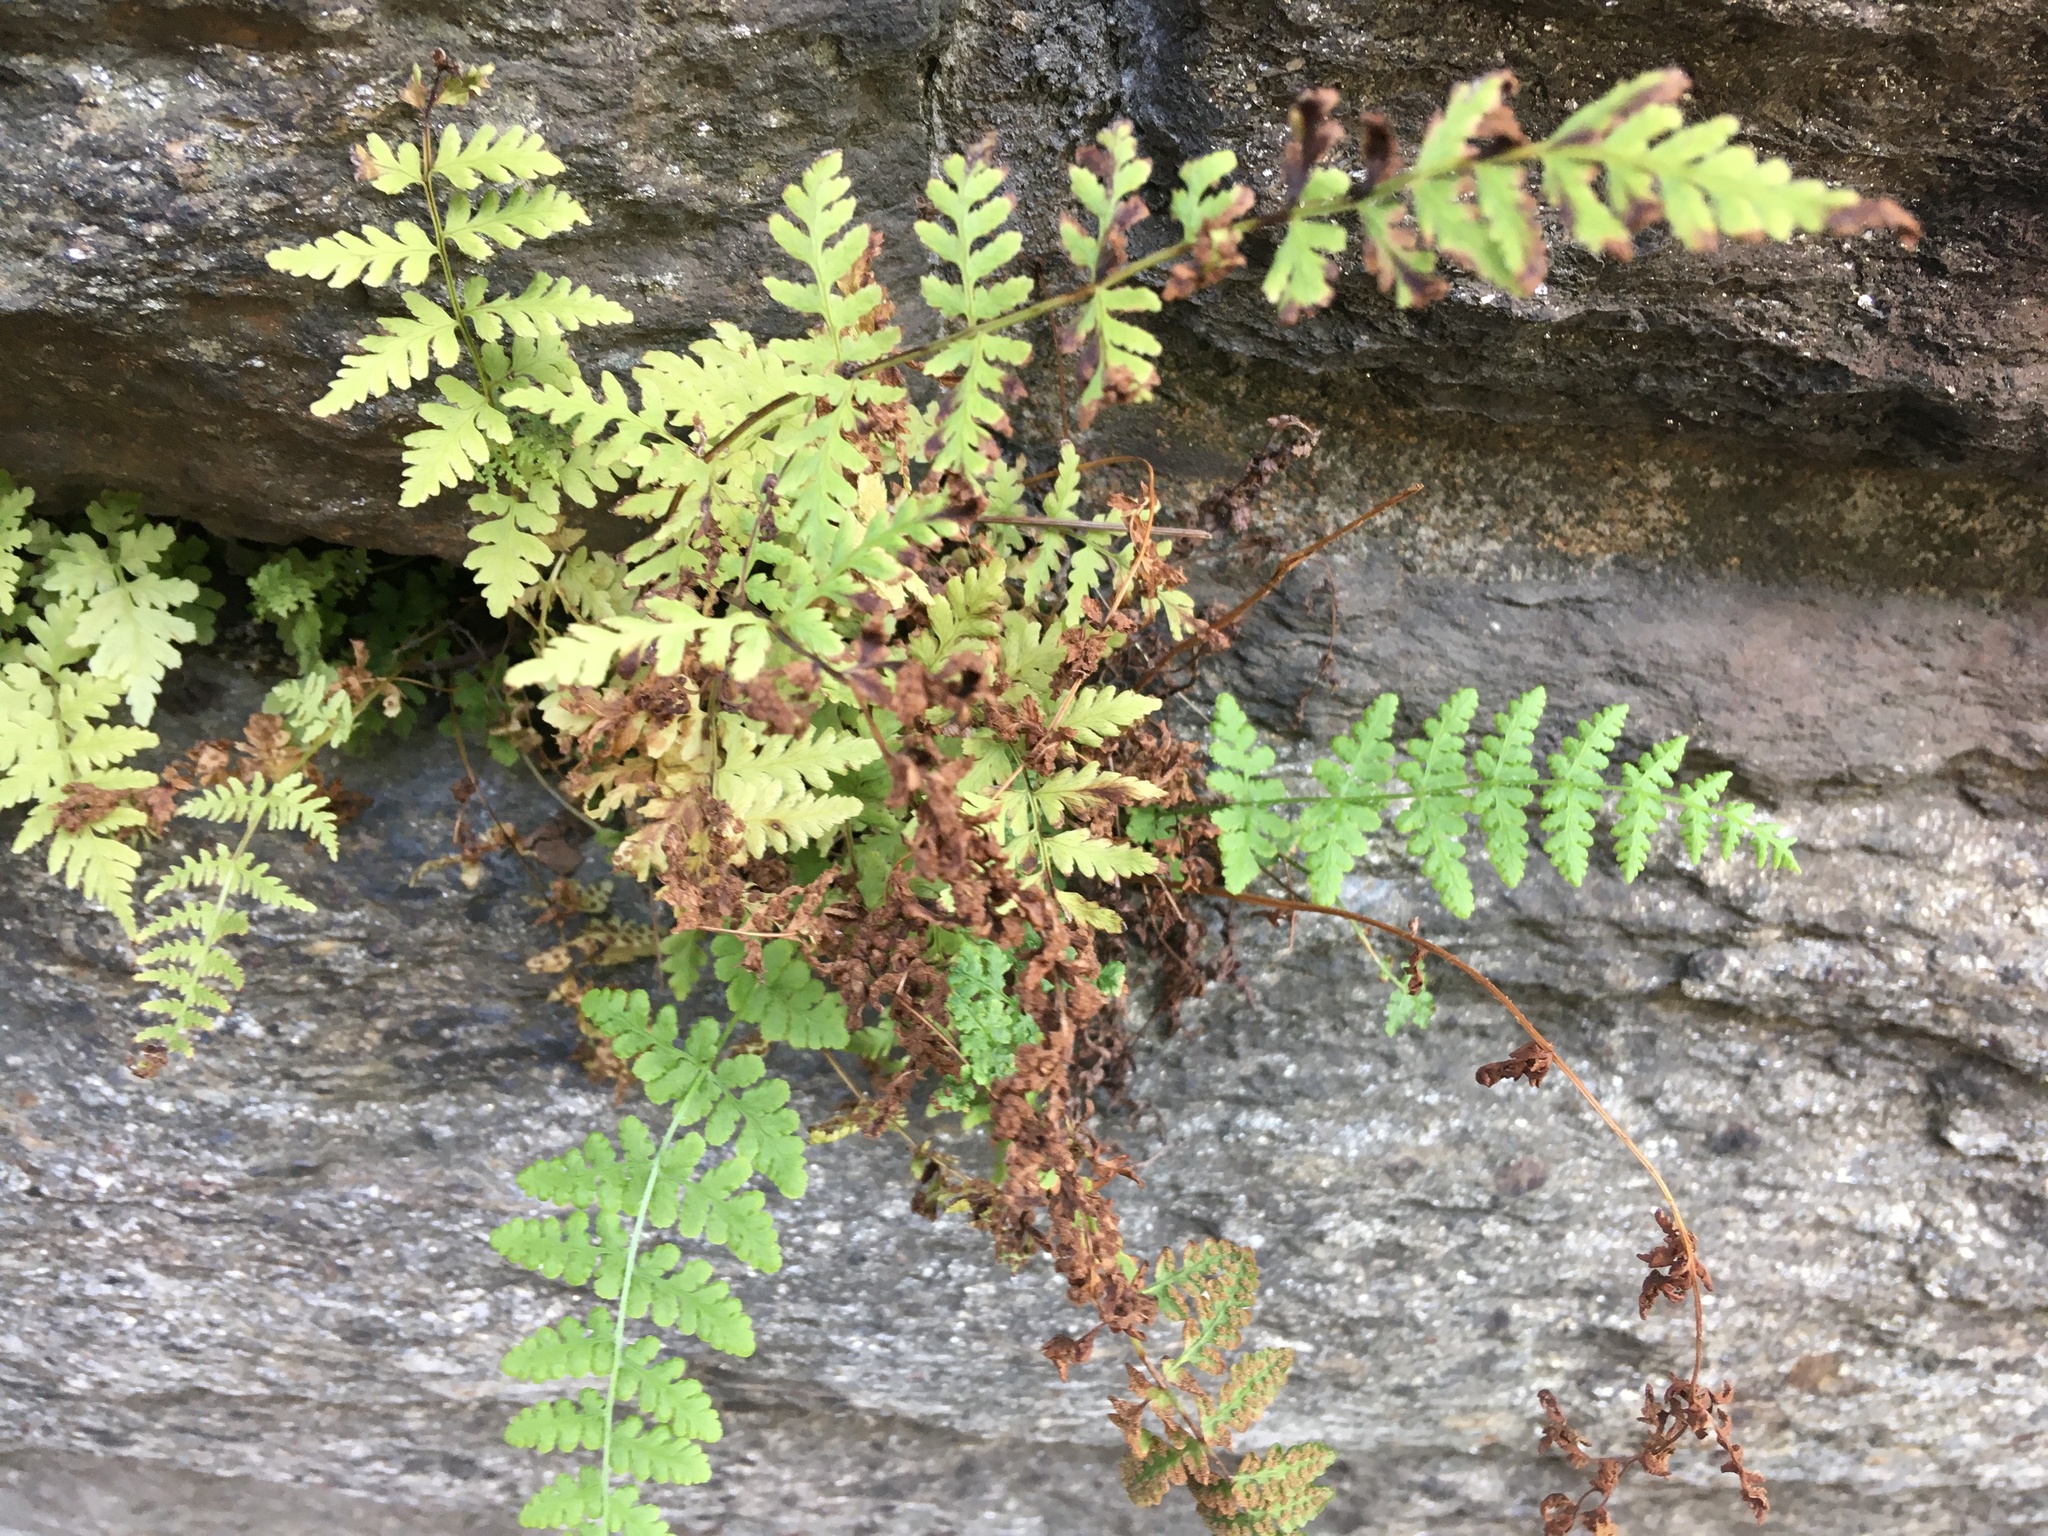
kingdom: Plantae
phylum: Tracheophyta
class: Polypodiopsida
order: Polypodiales
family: Woodsiaceae
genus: Physematium
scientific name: Physematium obtusum
